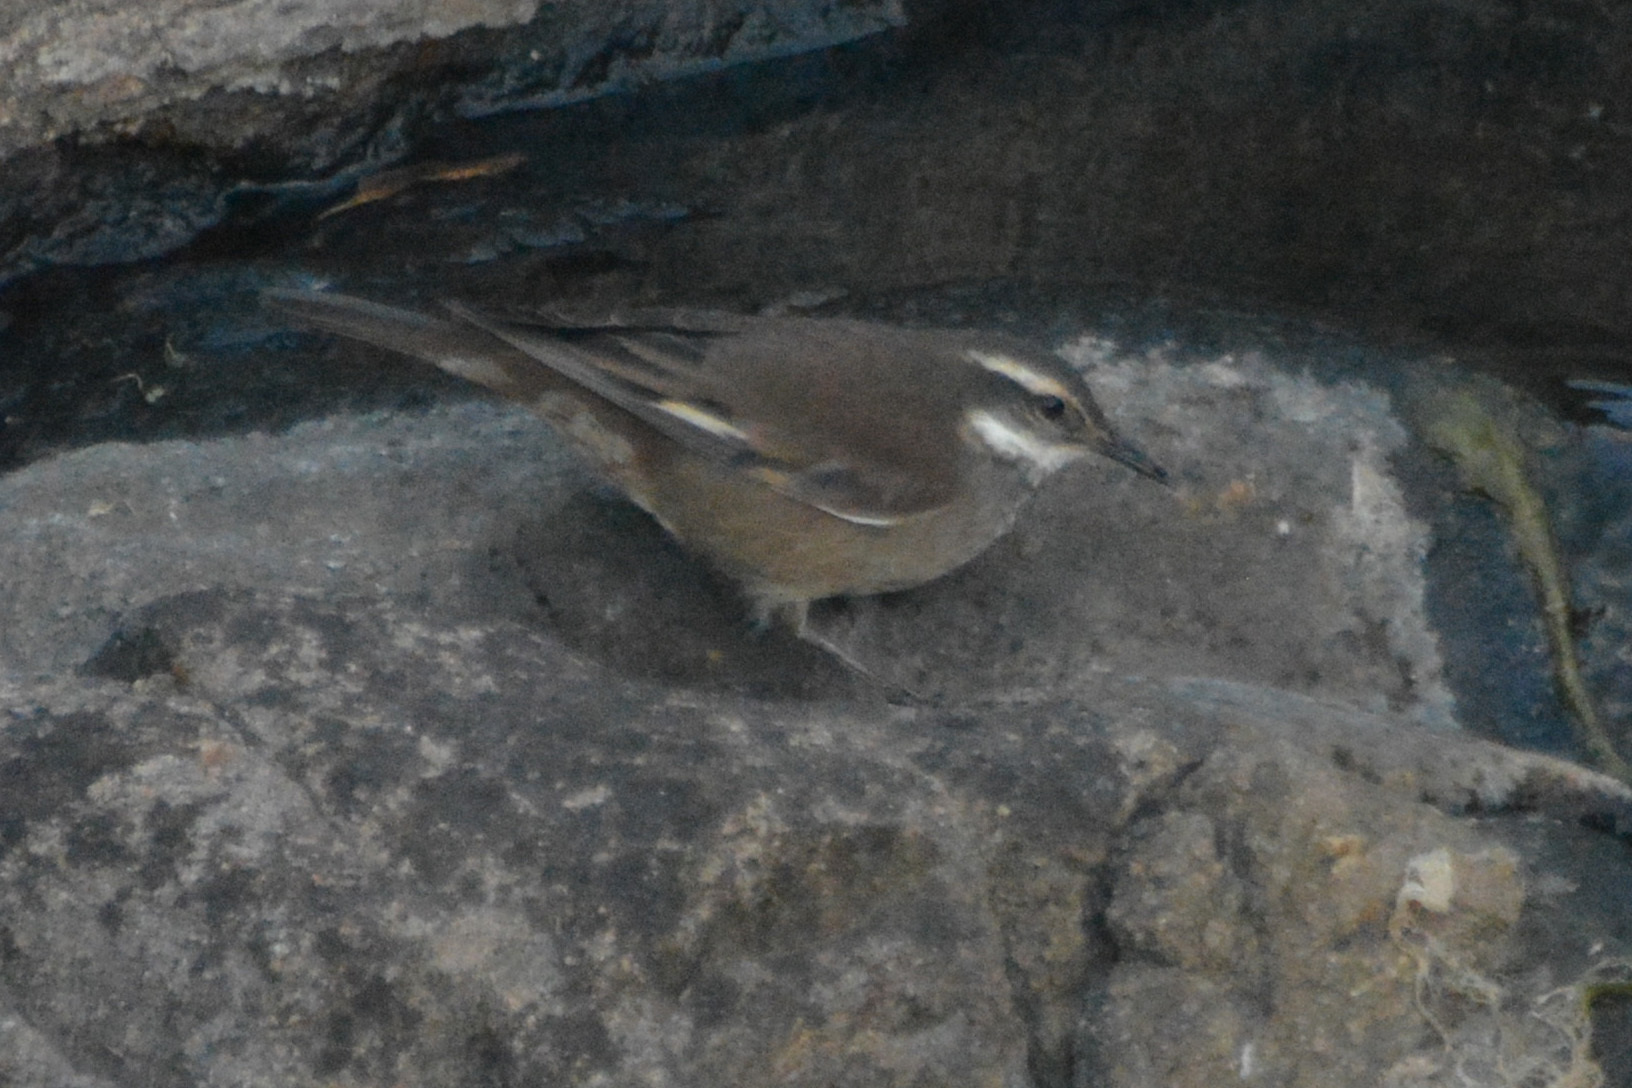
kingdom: Animalia
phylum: Chordata
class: Aves
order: Passeriformes
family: Furnariidae
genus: Cinclodes
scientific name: Cinclodes olrogi
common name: Olrog's cinclodes
